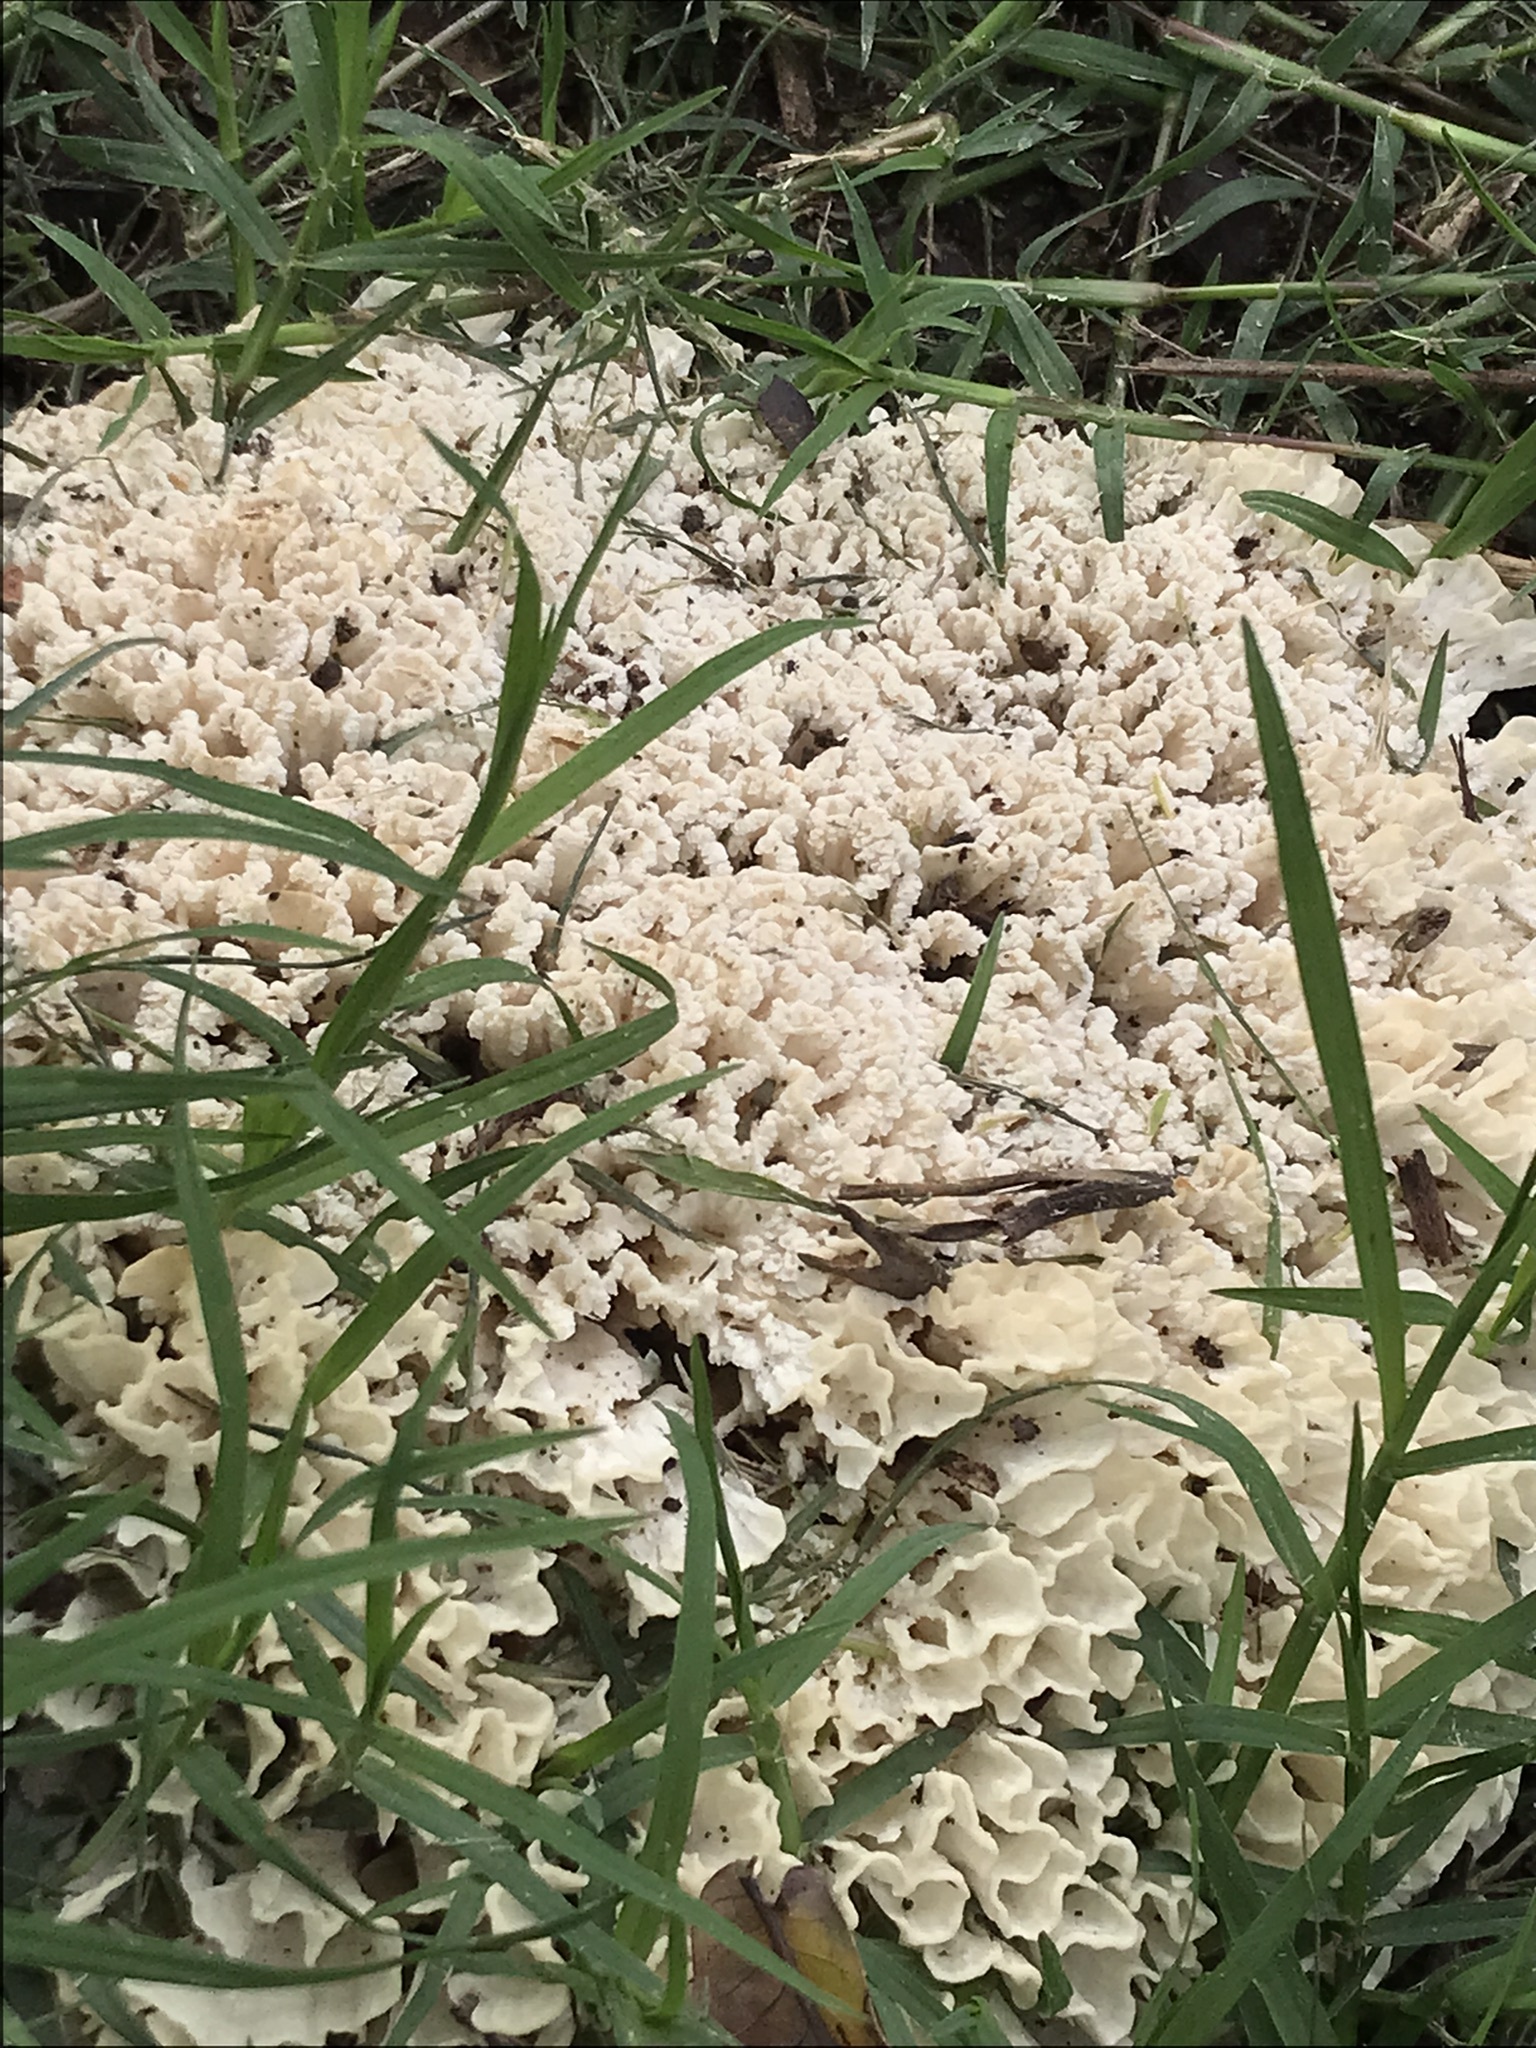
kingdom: Fungi
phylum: Basidiomycota
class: Agaricomycetes
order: Polyporales
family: Irpicaceae
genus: Irpex
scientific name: Irpex rosettiformis
